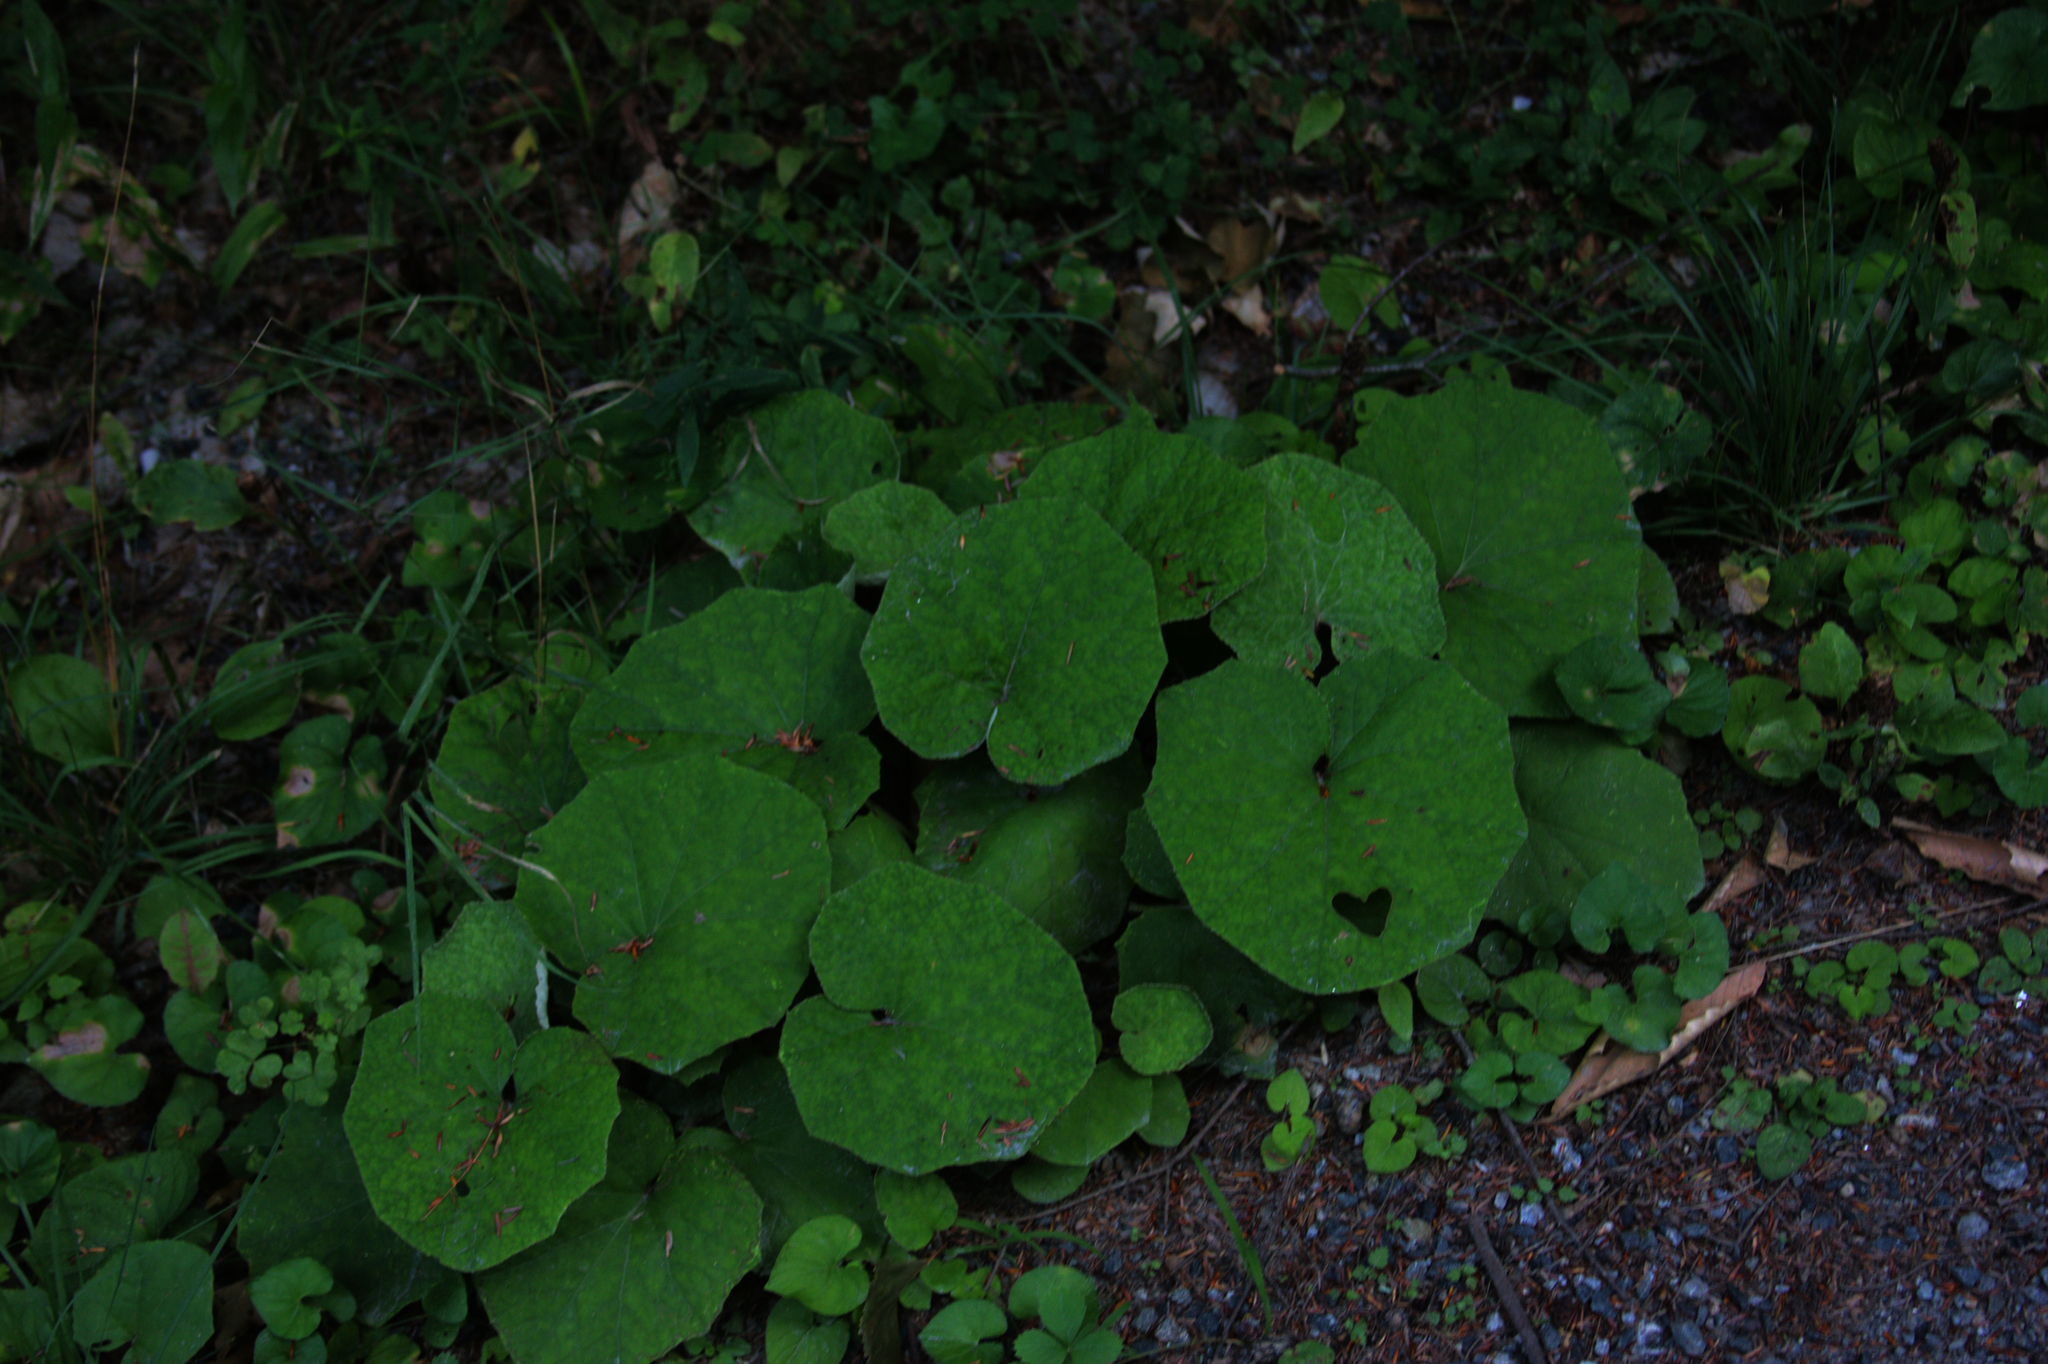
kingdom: Plantae
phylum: Tracheophyta
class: Magnoliopsida
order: Asterales
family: Asteraceae
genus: Tussilago
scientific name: Tussilago farfara
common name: Coltsfoot
